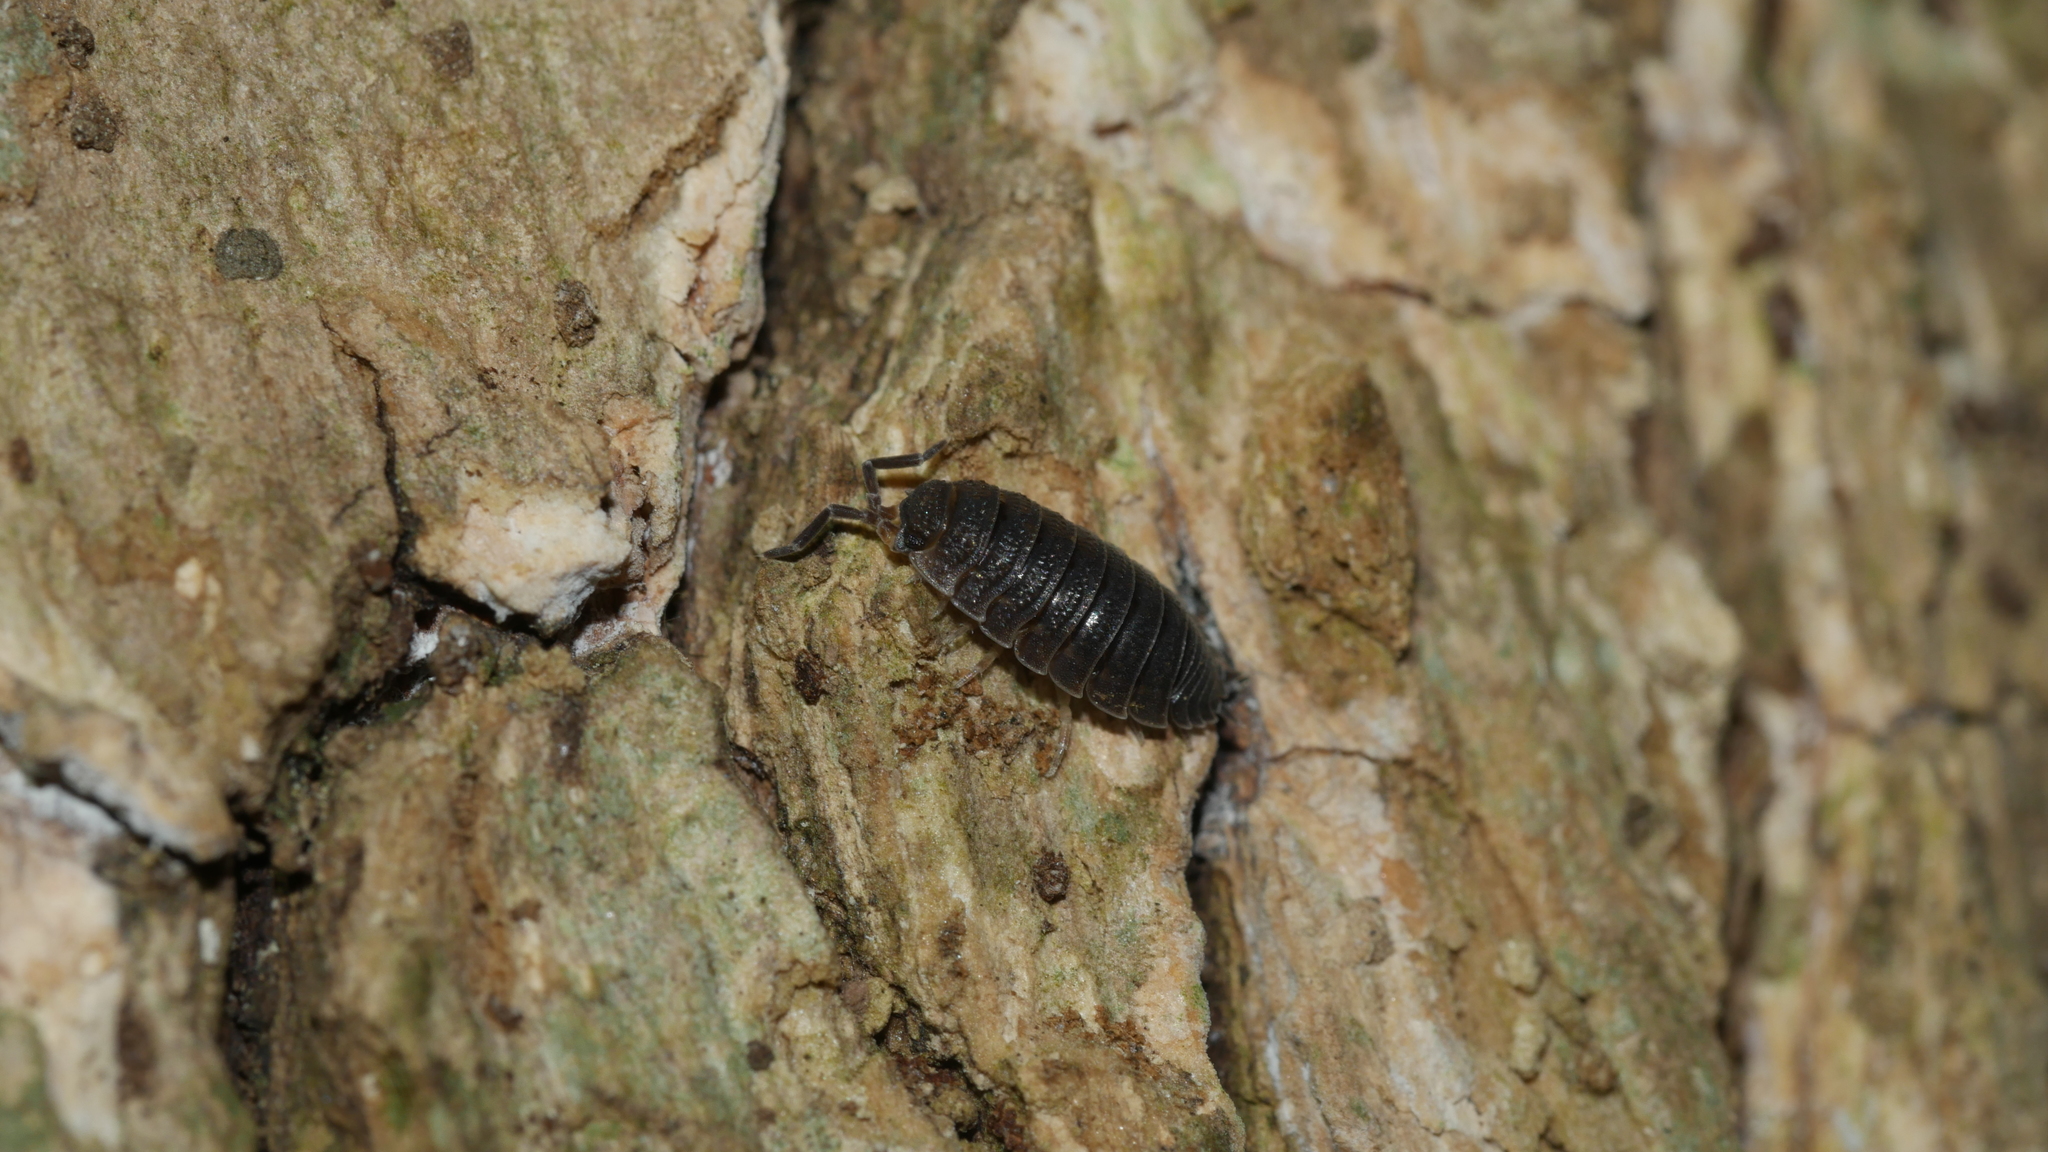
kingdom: Animalia
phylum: Arthropoda
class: Malacostraca
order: Isopoda
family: Porcellionidae
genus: Porcellio
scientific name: Porcellio scaber
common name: Common rough woodlouse
